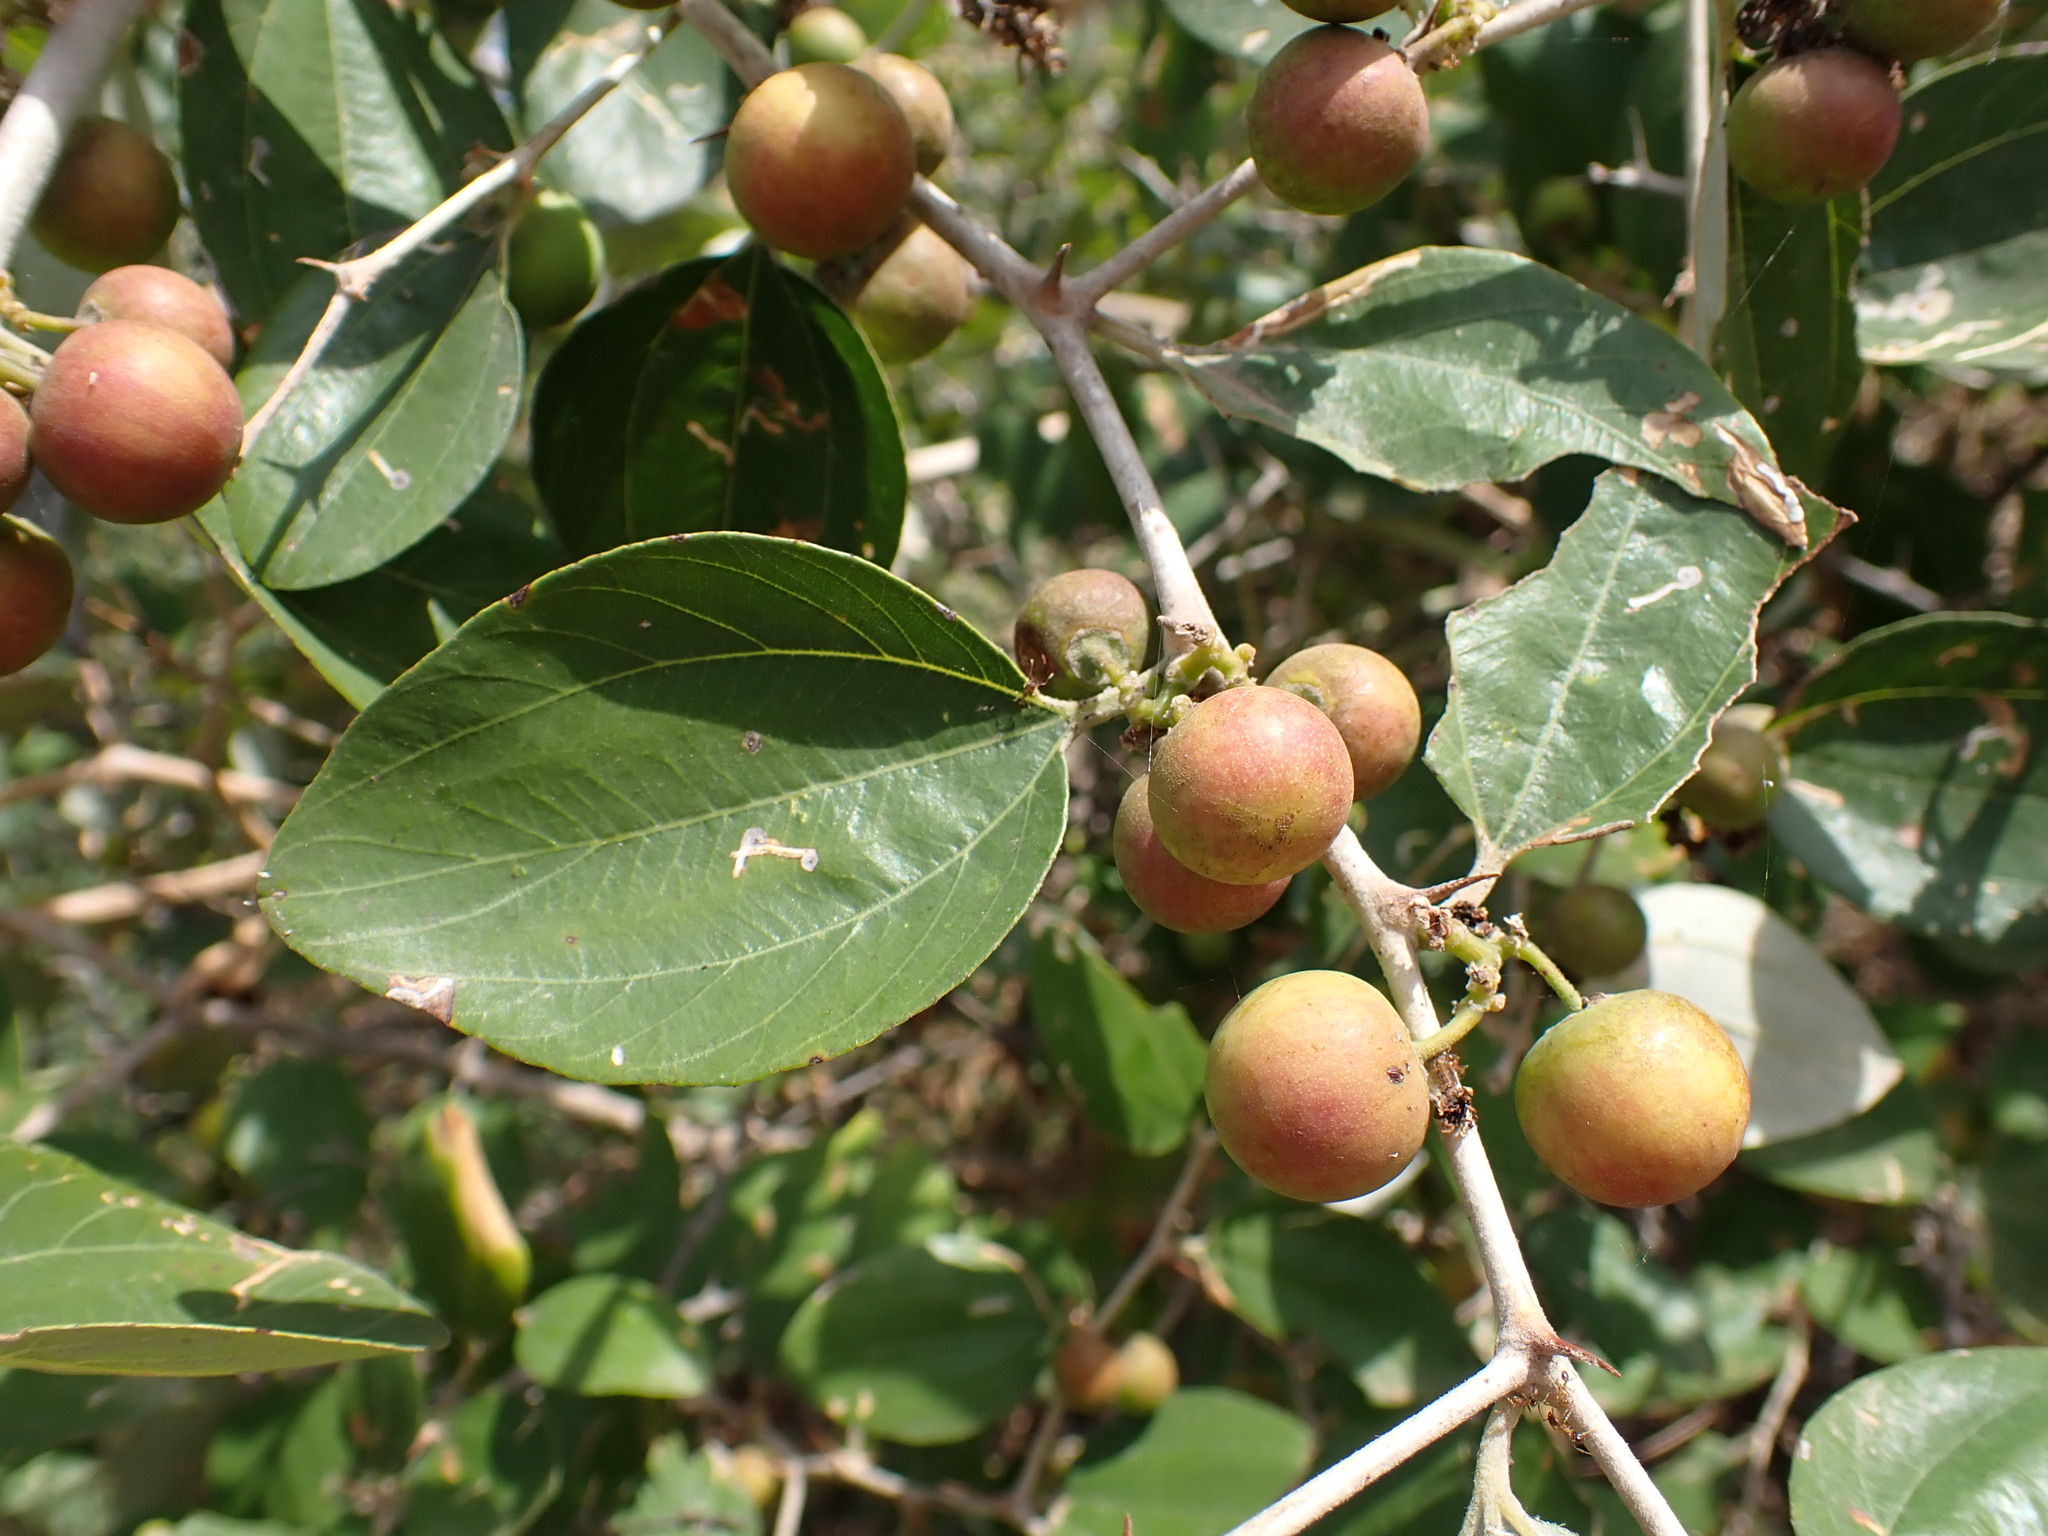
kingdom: Plantae
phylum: Tracheophyta
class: Magnoliopsida
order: Rosales
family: Rhamnaceae
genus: Ziziphus
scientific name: Ziziphus mauritiana
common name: Indian jujube
